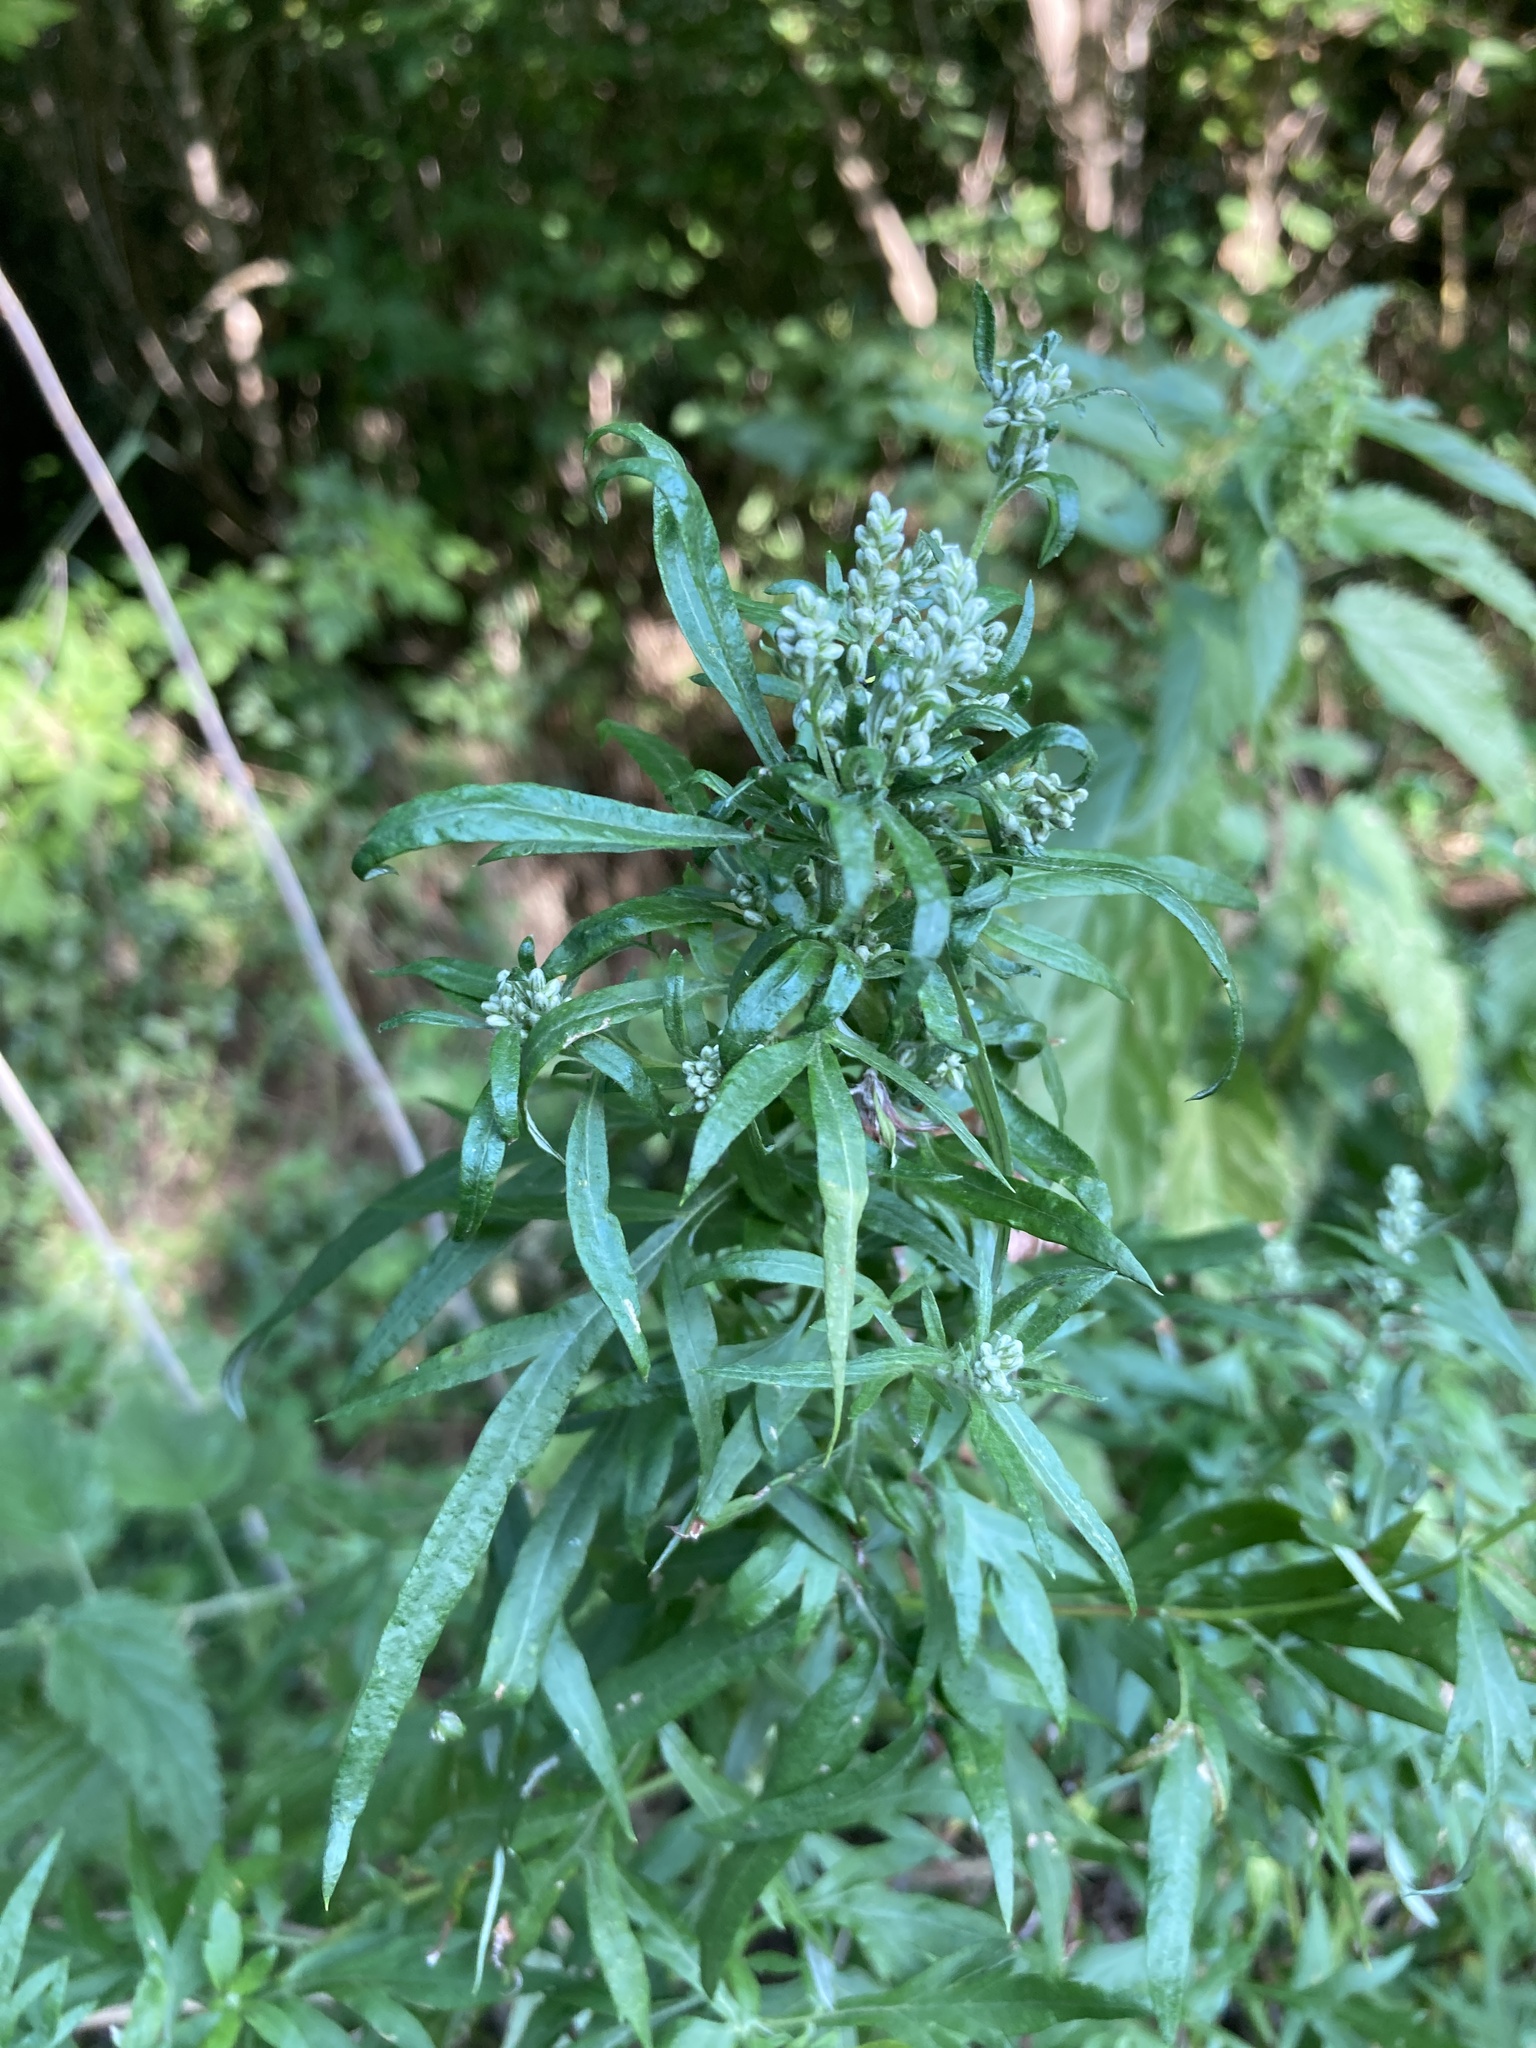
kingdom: Plantae
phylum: Tracheophyta
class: Magnoliopsida
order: Asterales
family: Asteraceae
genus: Artemisia
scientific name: Artemisia vulgaris
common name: Mugwort
